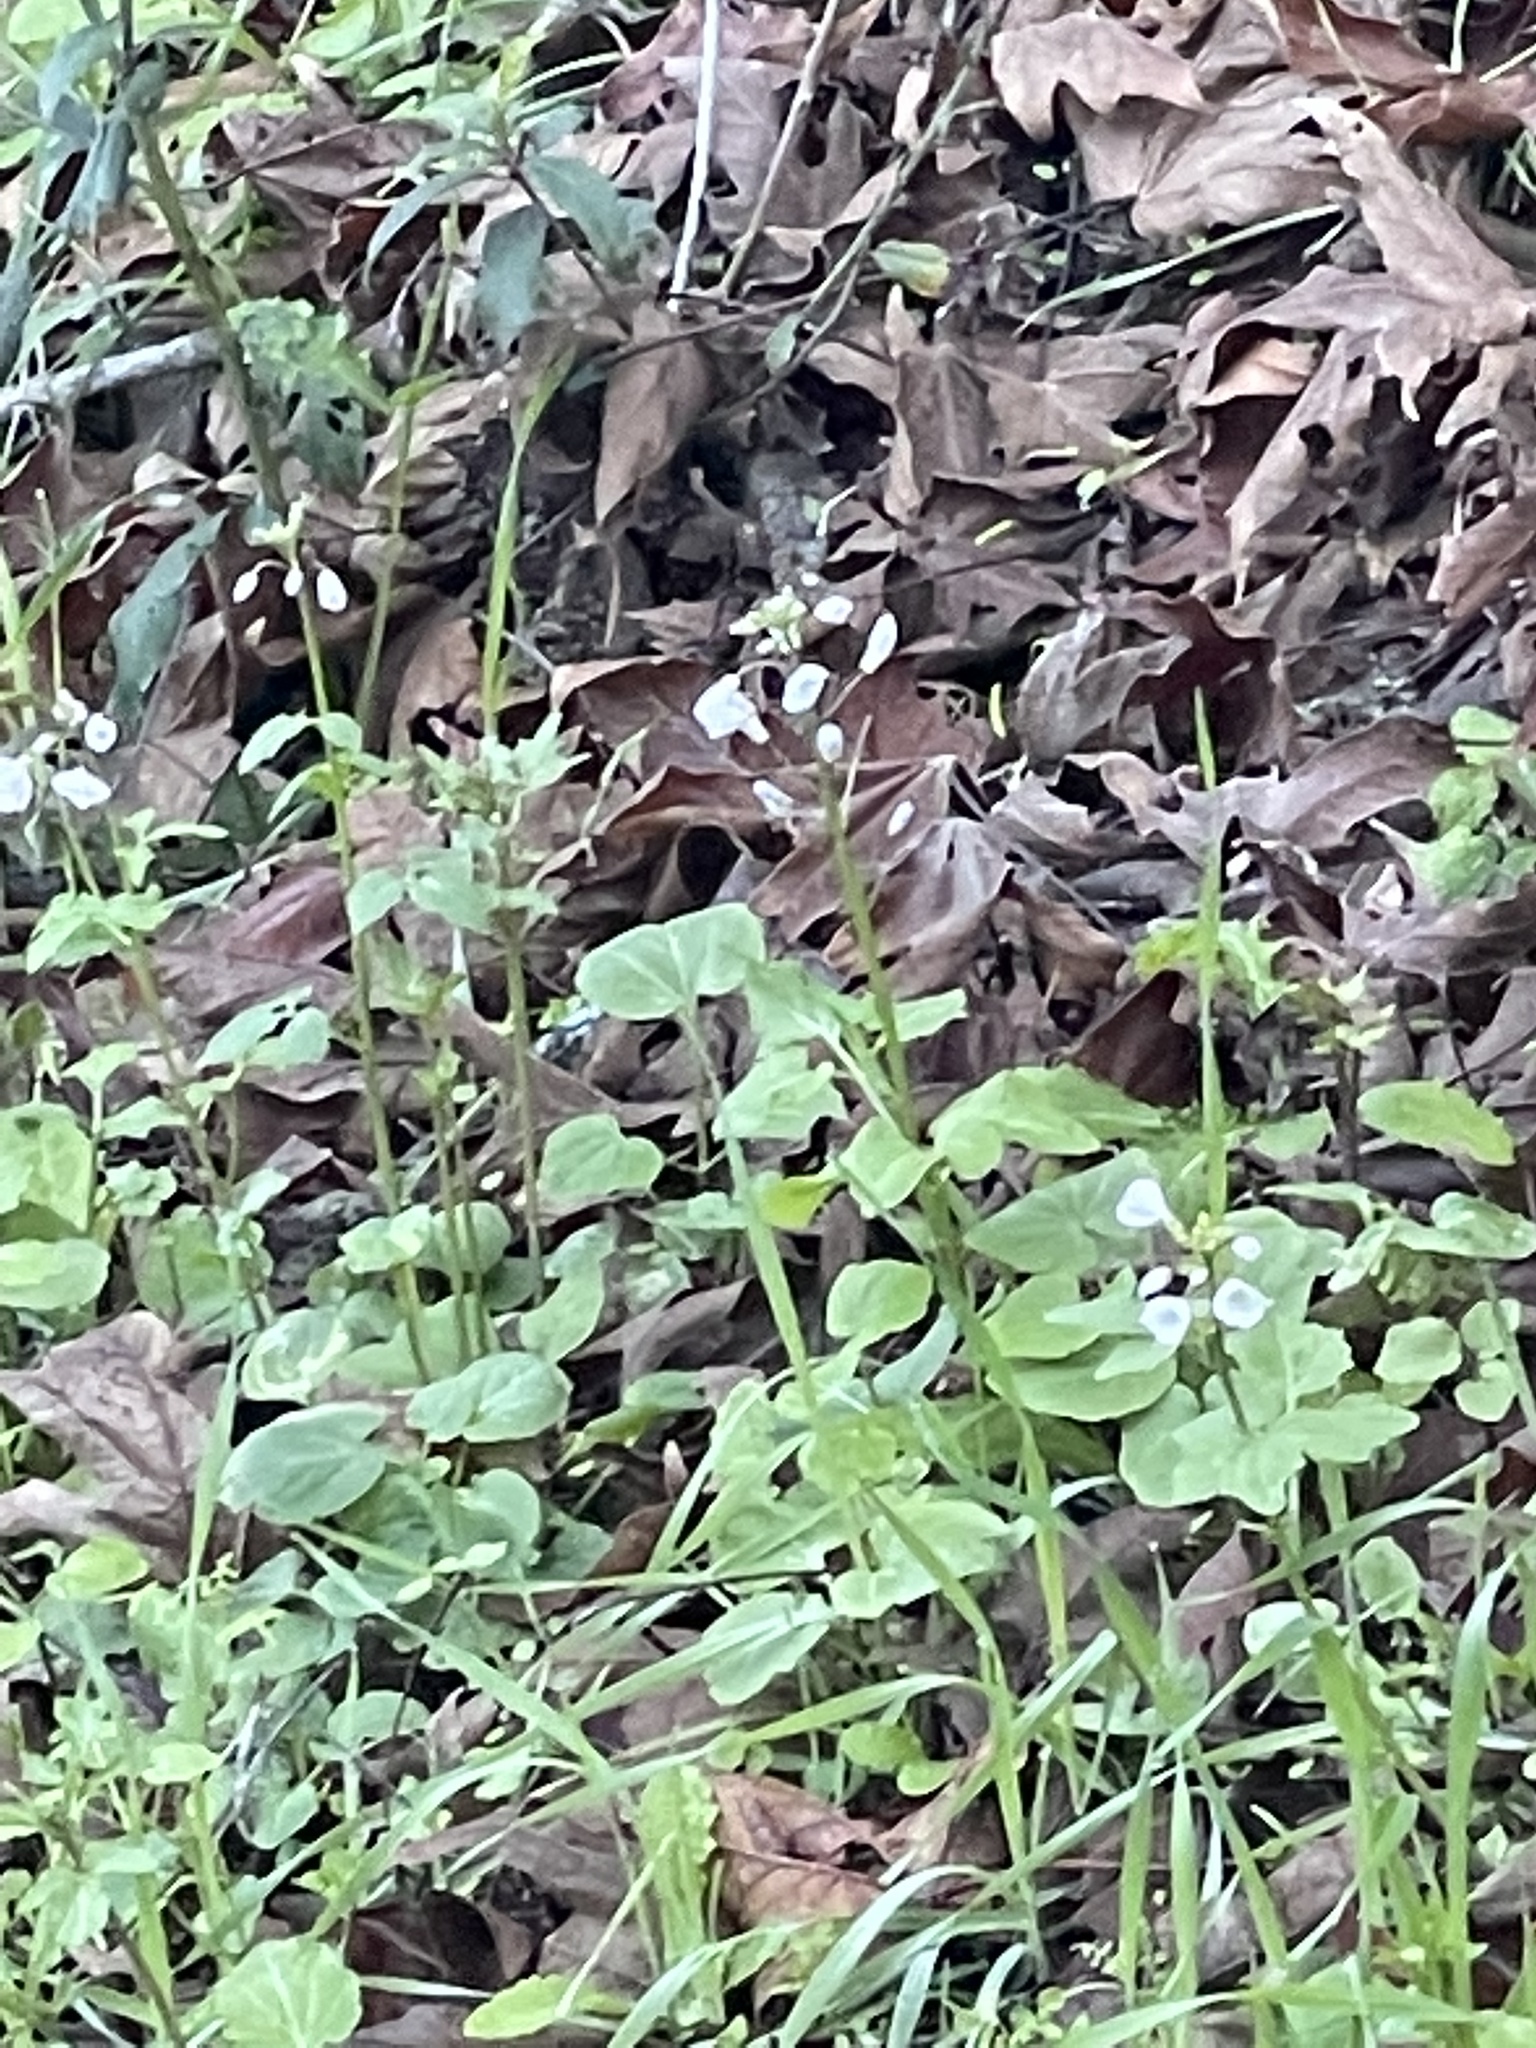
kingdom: Plantae
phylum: Tracheophyta
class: Magnoliopsida
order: Brassicales
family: Brassicaceae
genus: Cardamine
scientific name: Cardamine californica
